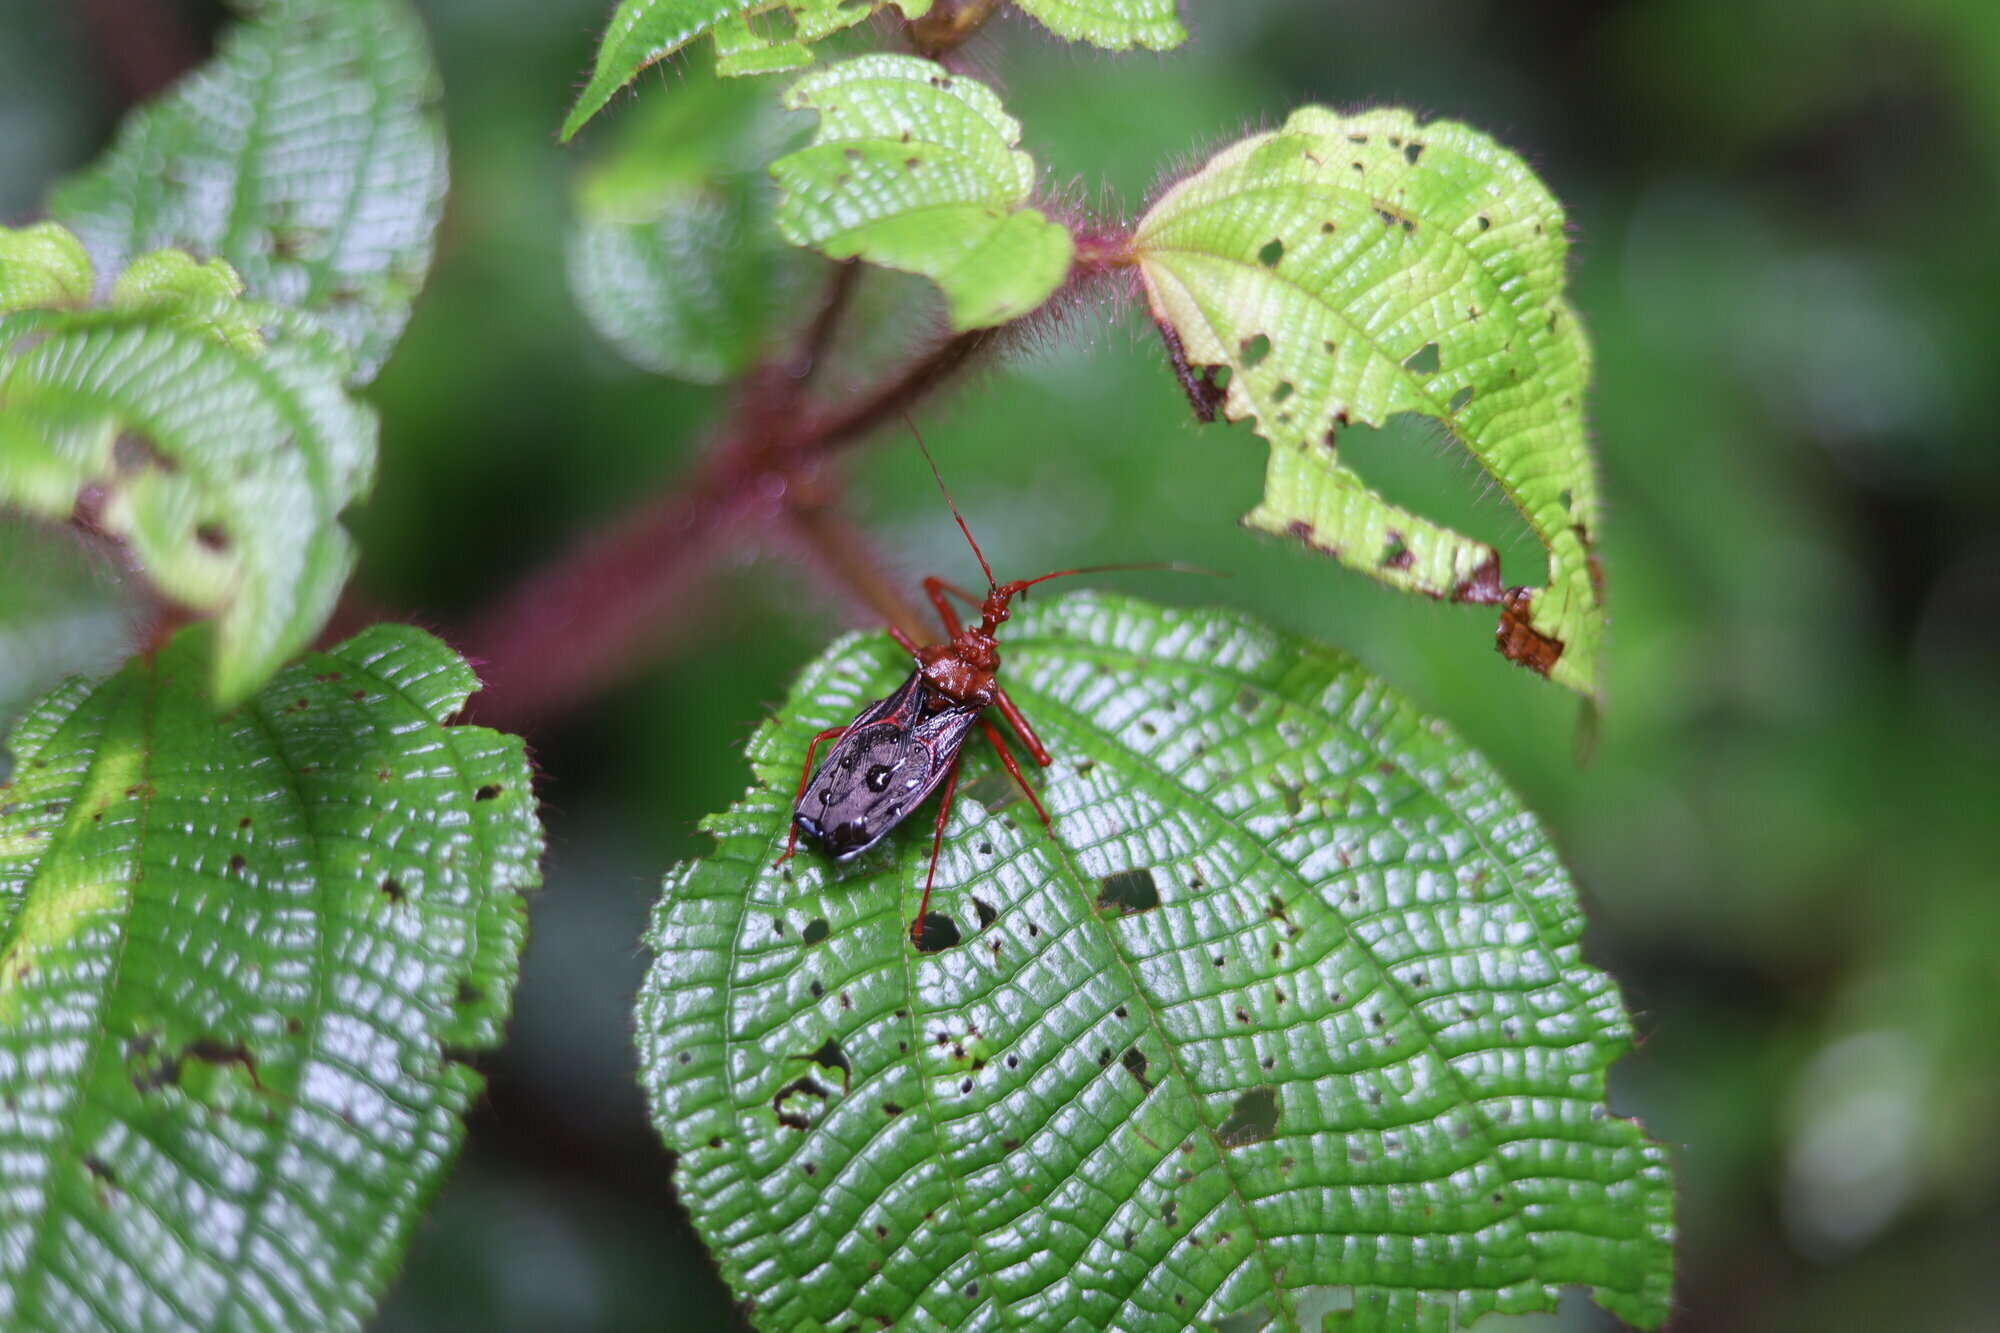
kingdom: Animalia
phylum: Arthropoda
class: Insecta
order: Hemiptera
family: Reduviidae
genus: Erbessus
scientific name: Erbessus grossus
